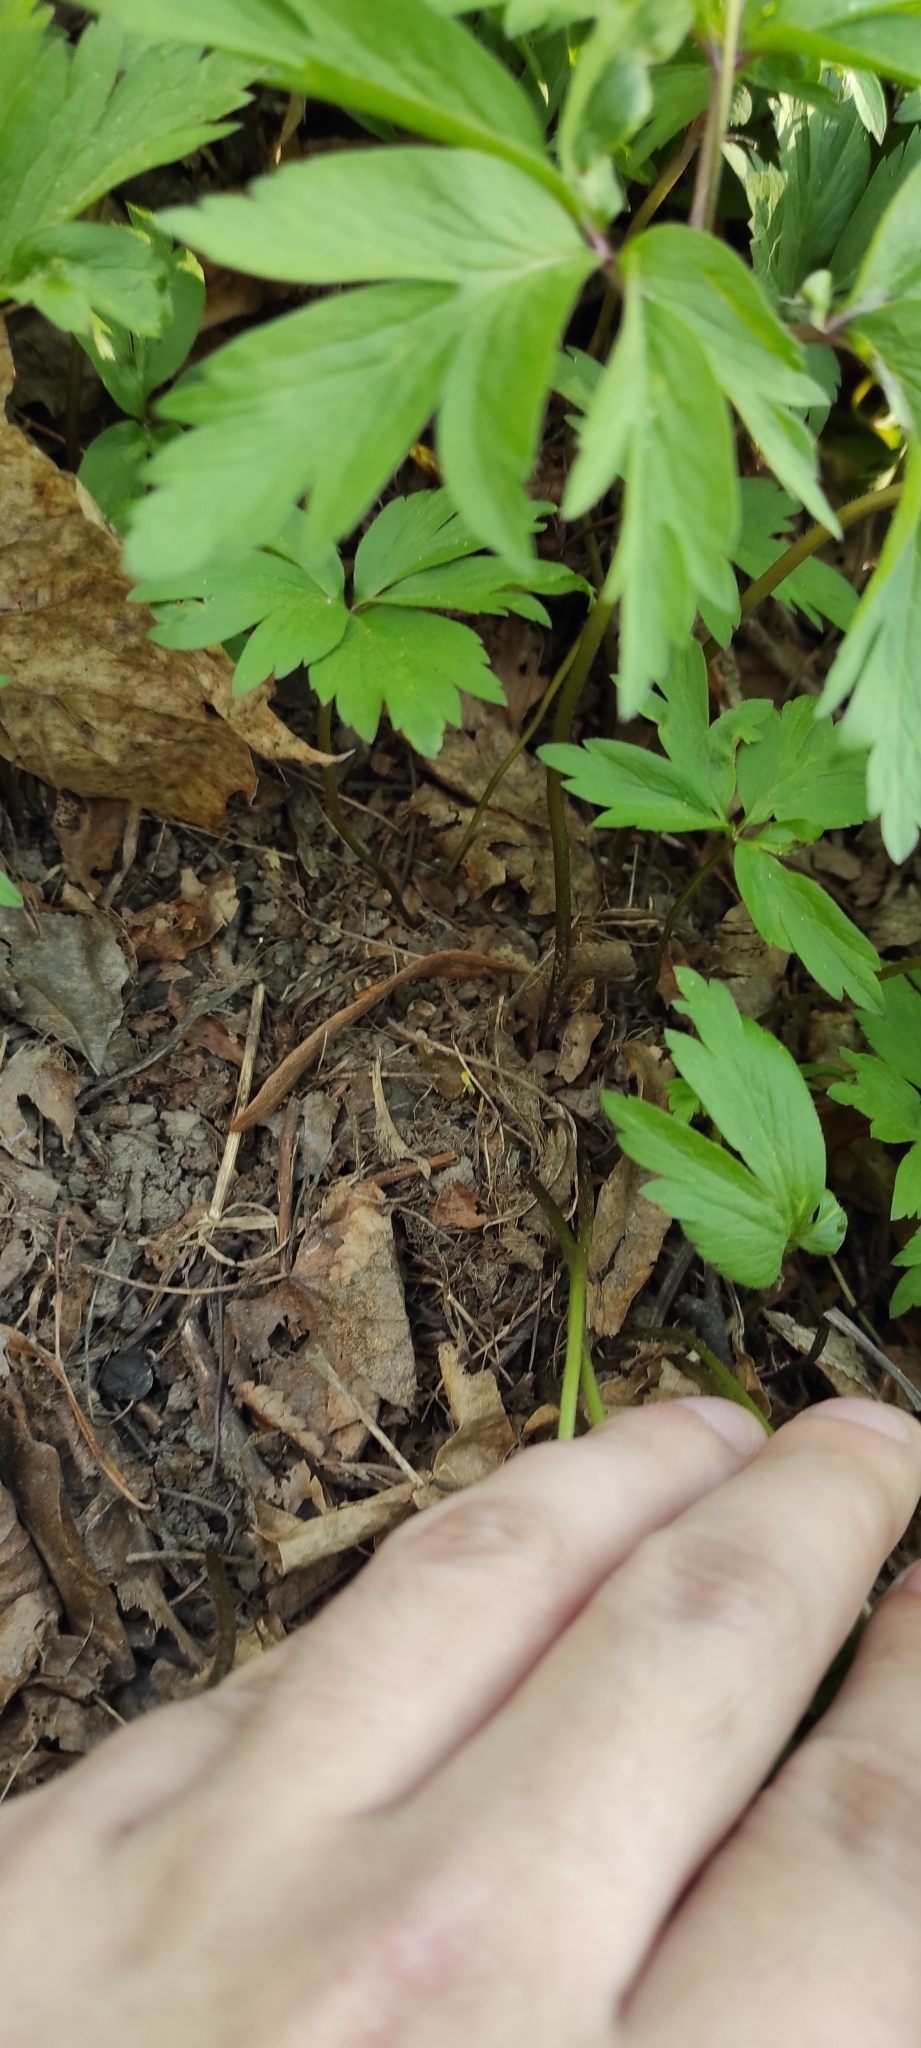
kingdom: Plantae
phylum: Tracheophyta
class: Magnoliopsida
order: Ranunculales
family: Ranunculaceae
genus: Anemone
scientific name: Anemone nemorosa
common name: Wood anemone
